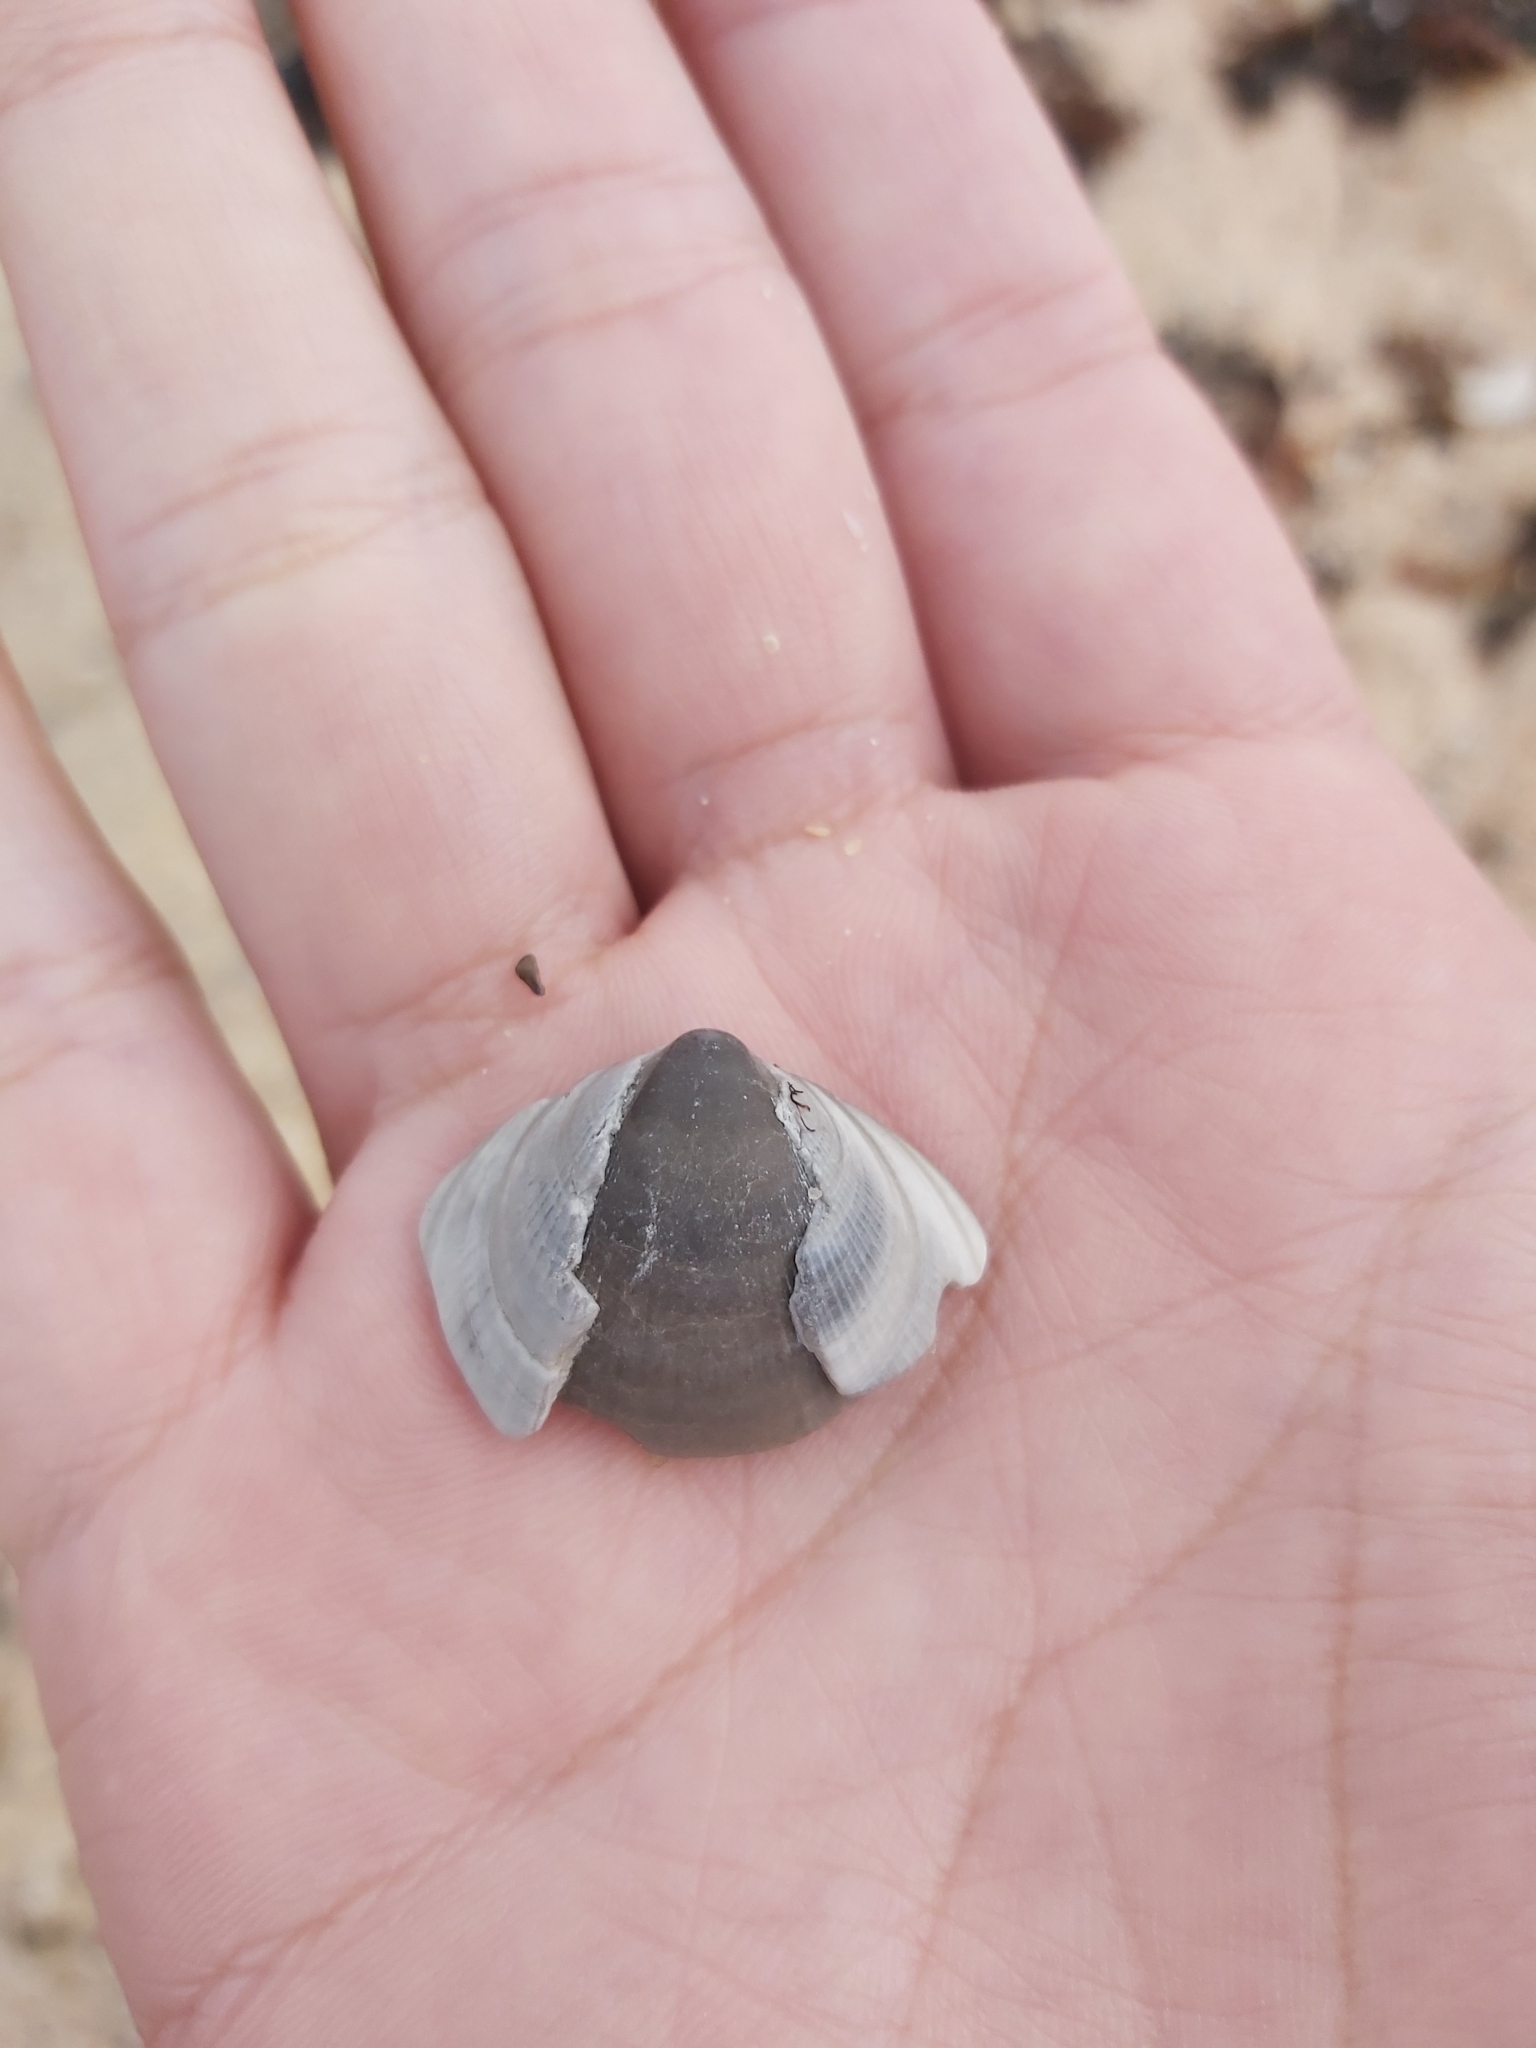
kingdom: Animalia
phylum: Mollusca
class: Bivalvia
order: Arcida
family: Glycymerididae
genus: Glycymeris
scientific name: Glycymeris grayana
